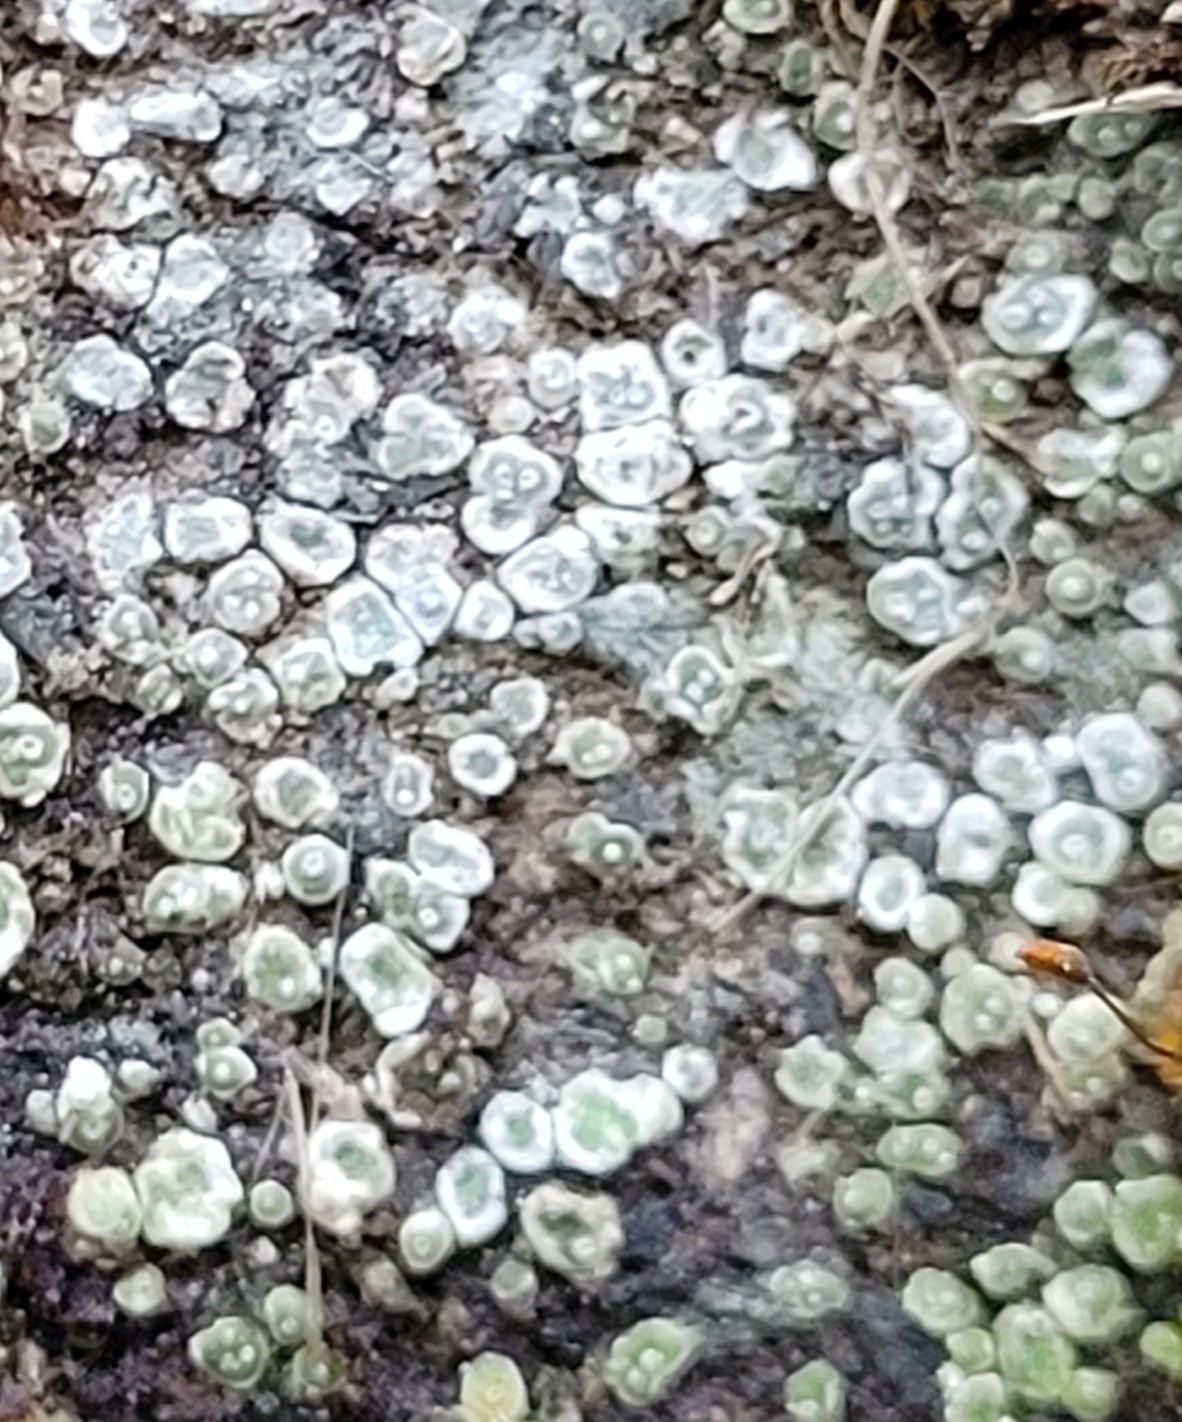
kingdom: Fungi
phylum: Ascomycota
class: Lecanoromycetes
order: Pertusariales
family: Megasporaceae
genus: Circinaria
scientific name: Circinaria contorta
